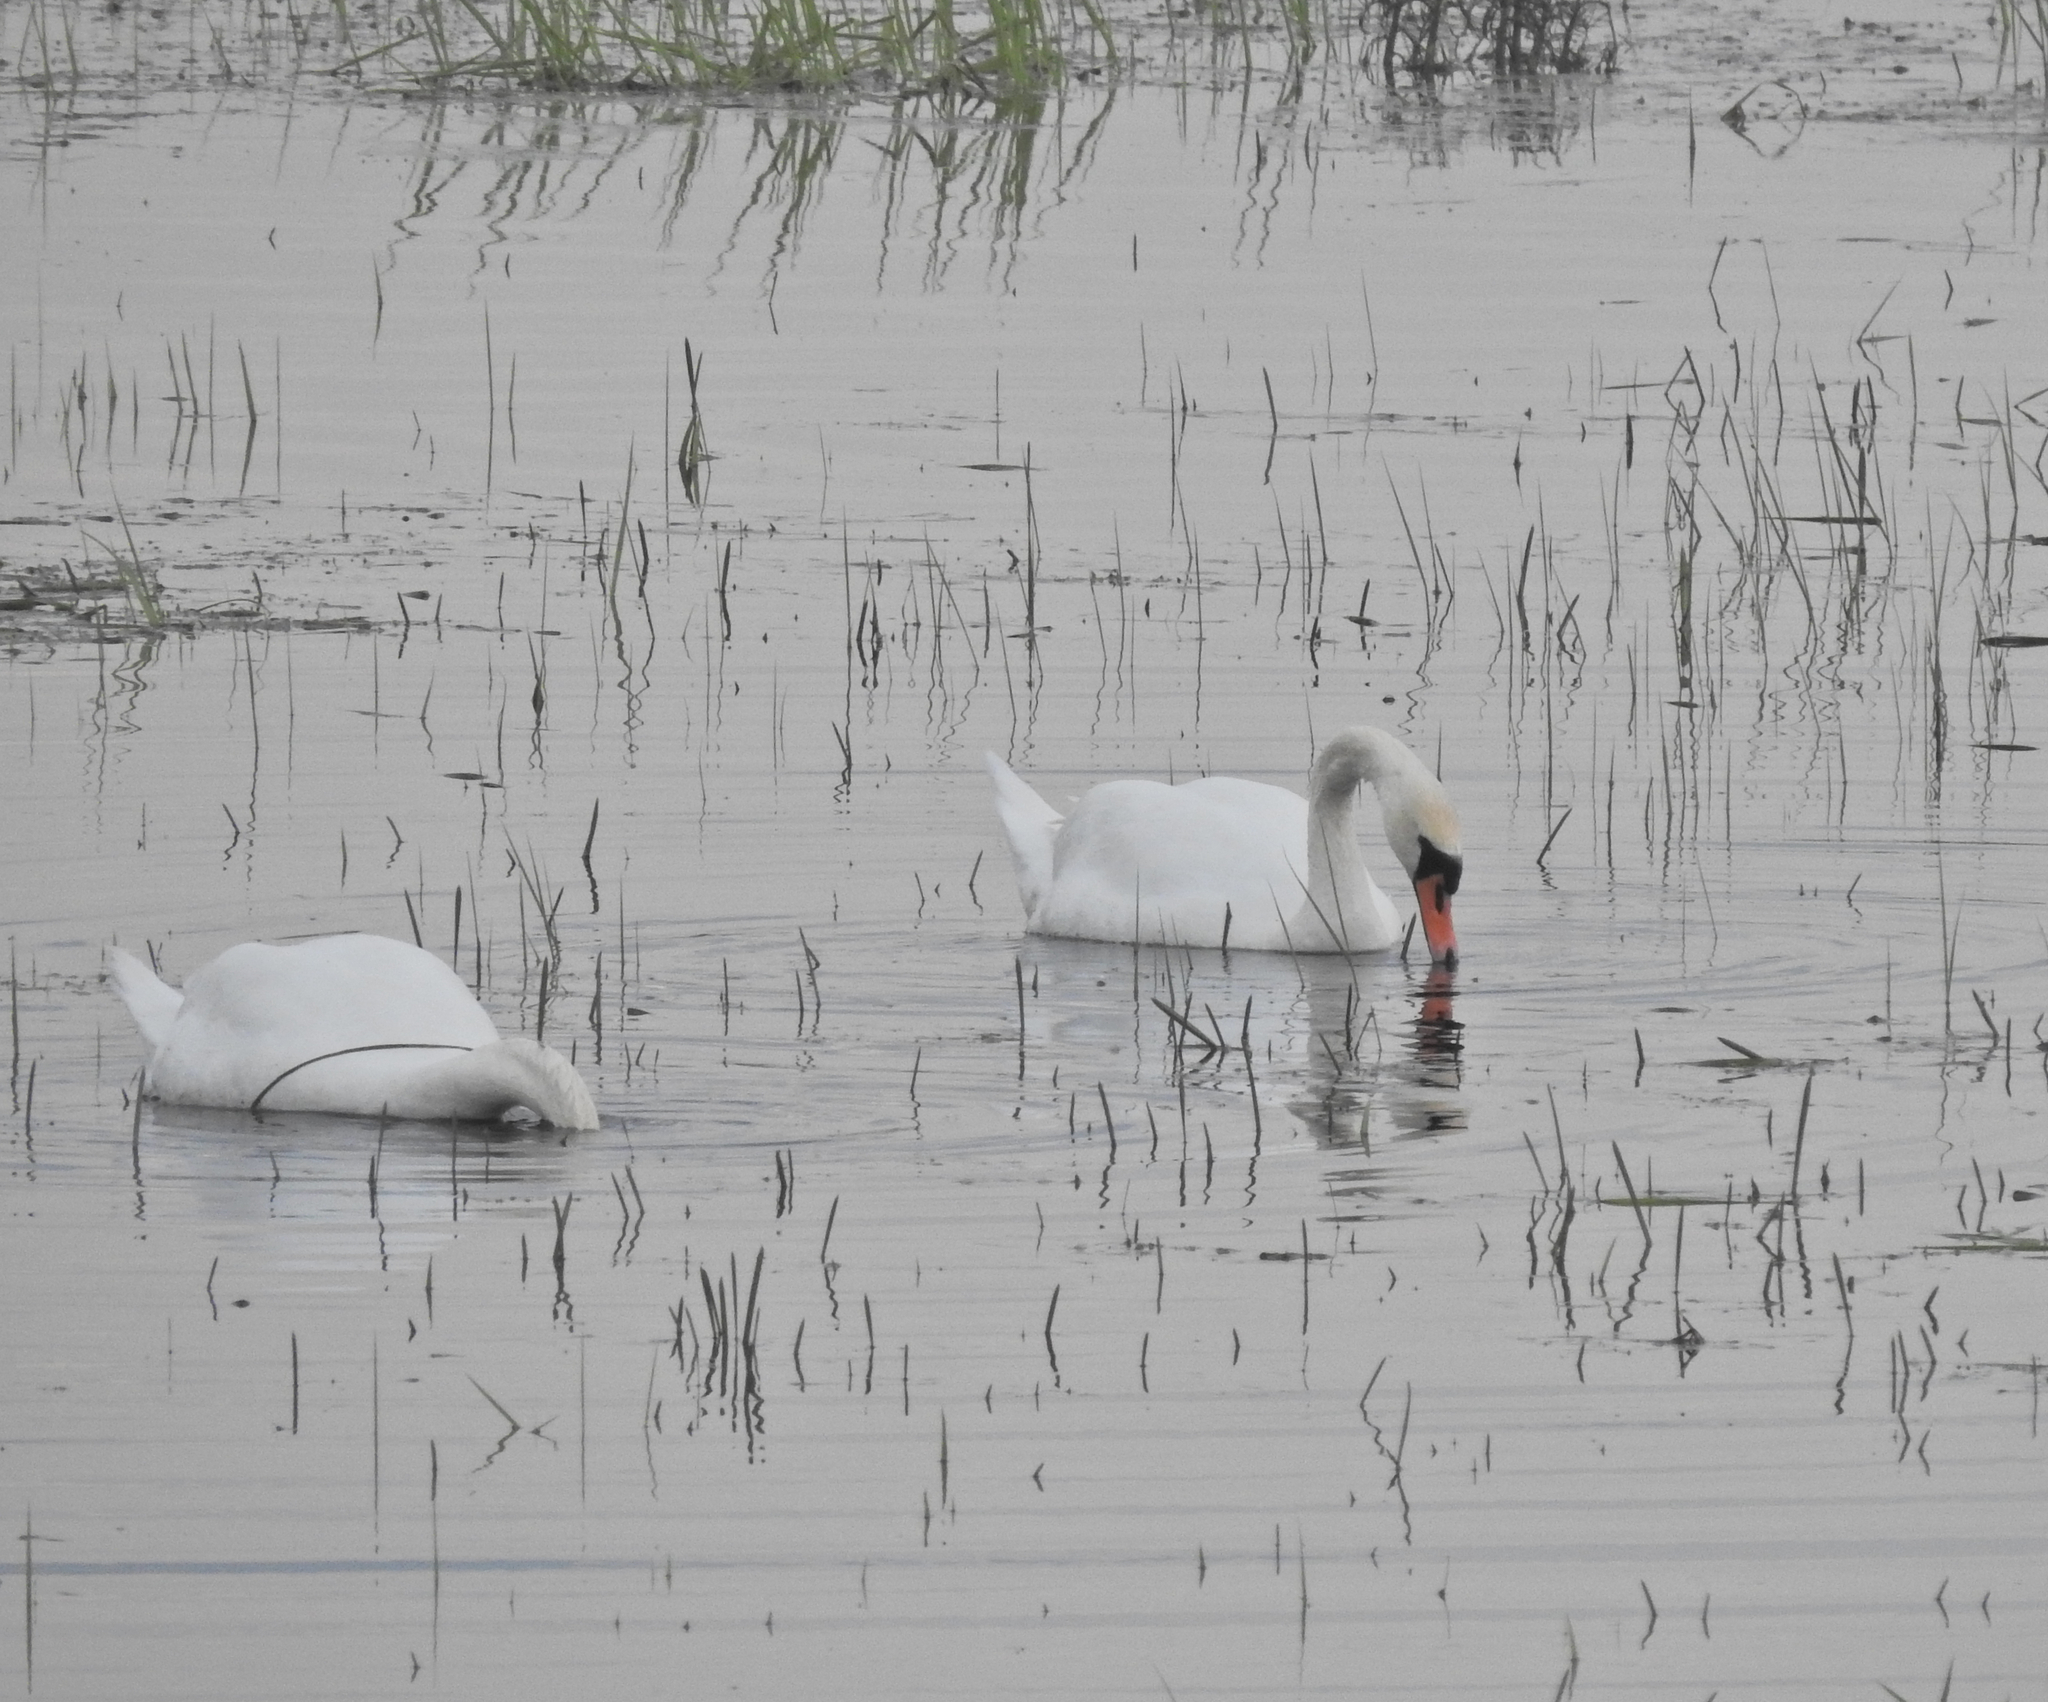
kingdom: Animalia
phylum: Chordata
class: Aves
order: Anseriformes
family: Anatidae
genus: Cygnus
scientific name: Cygnus olor
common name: Mute swan
